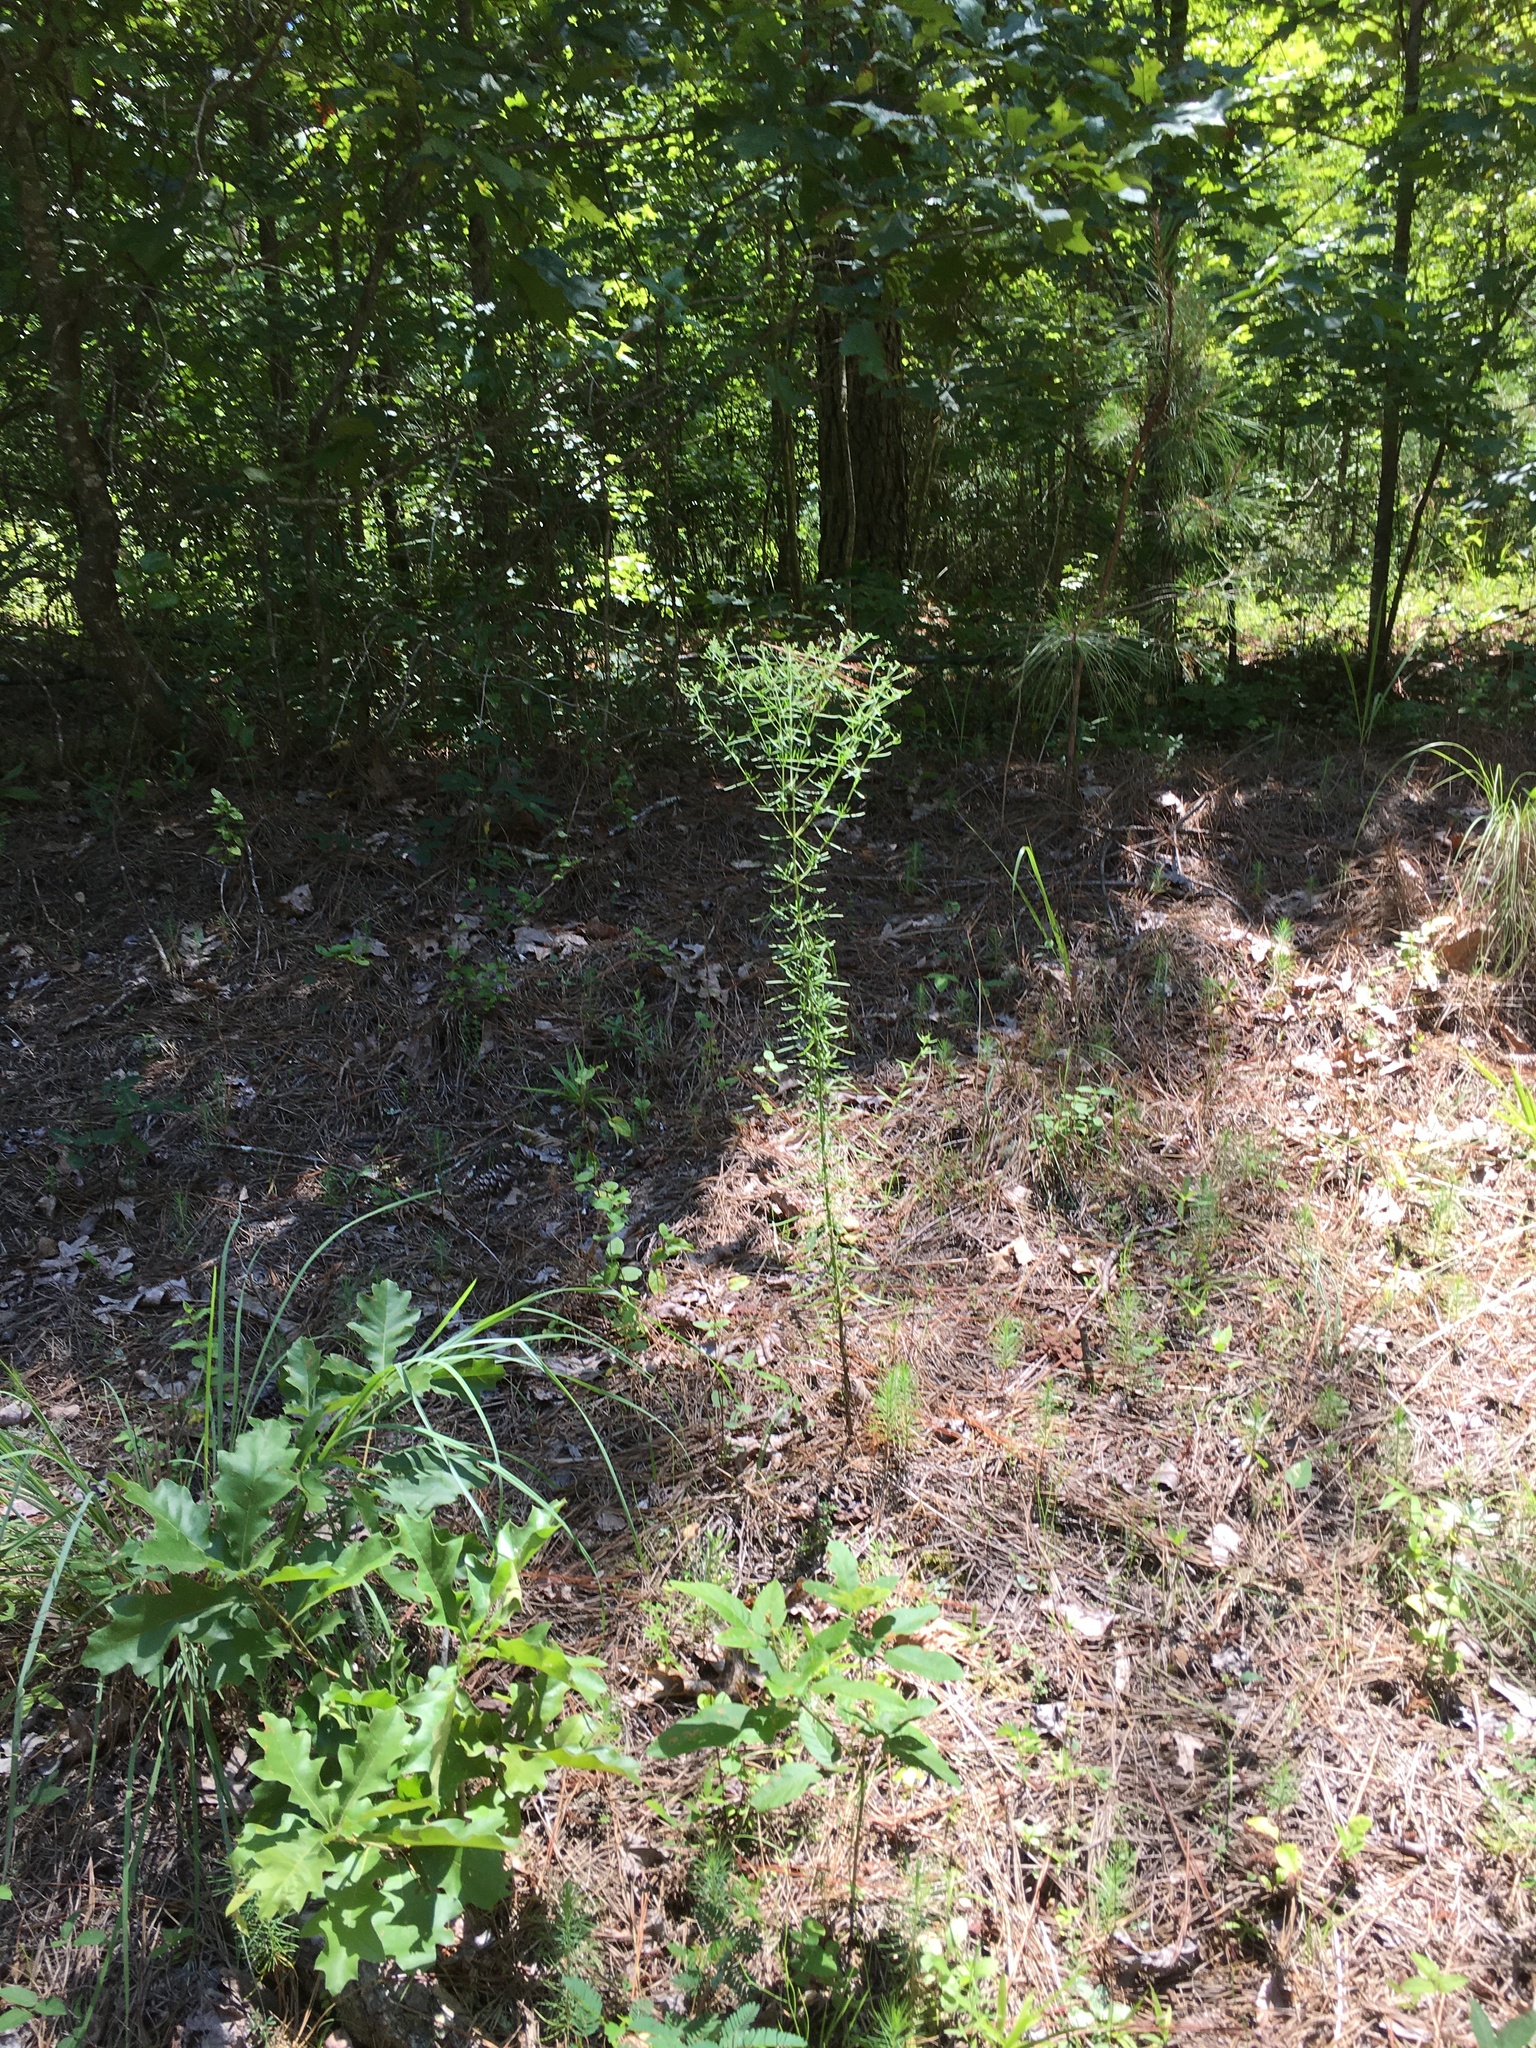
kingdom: Plantae
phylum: Tracheophyta
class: Magnoliopsida
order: Asterales
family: Asteraceae
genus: Eupatorium
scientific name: Eupatorium hyssopifolium
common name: Hyssop-leaf thoroughwort
